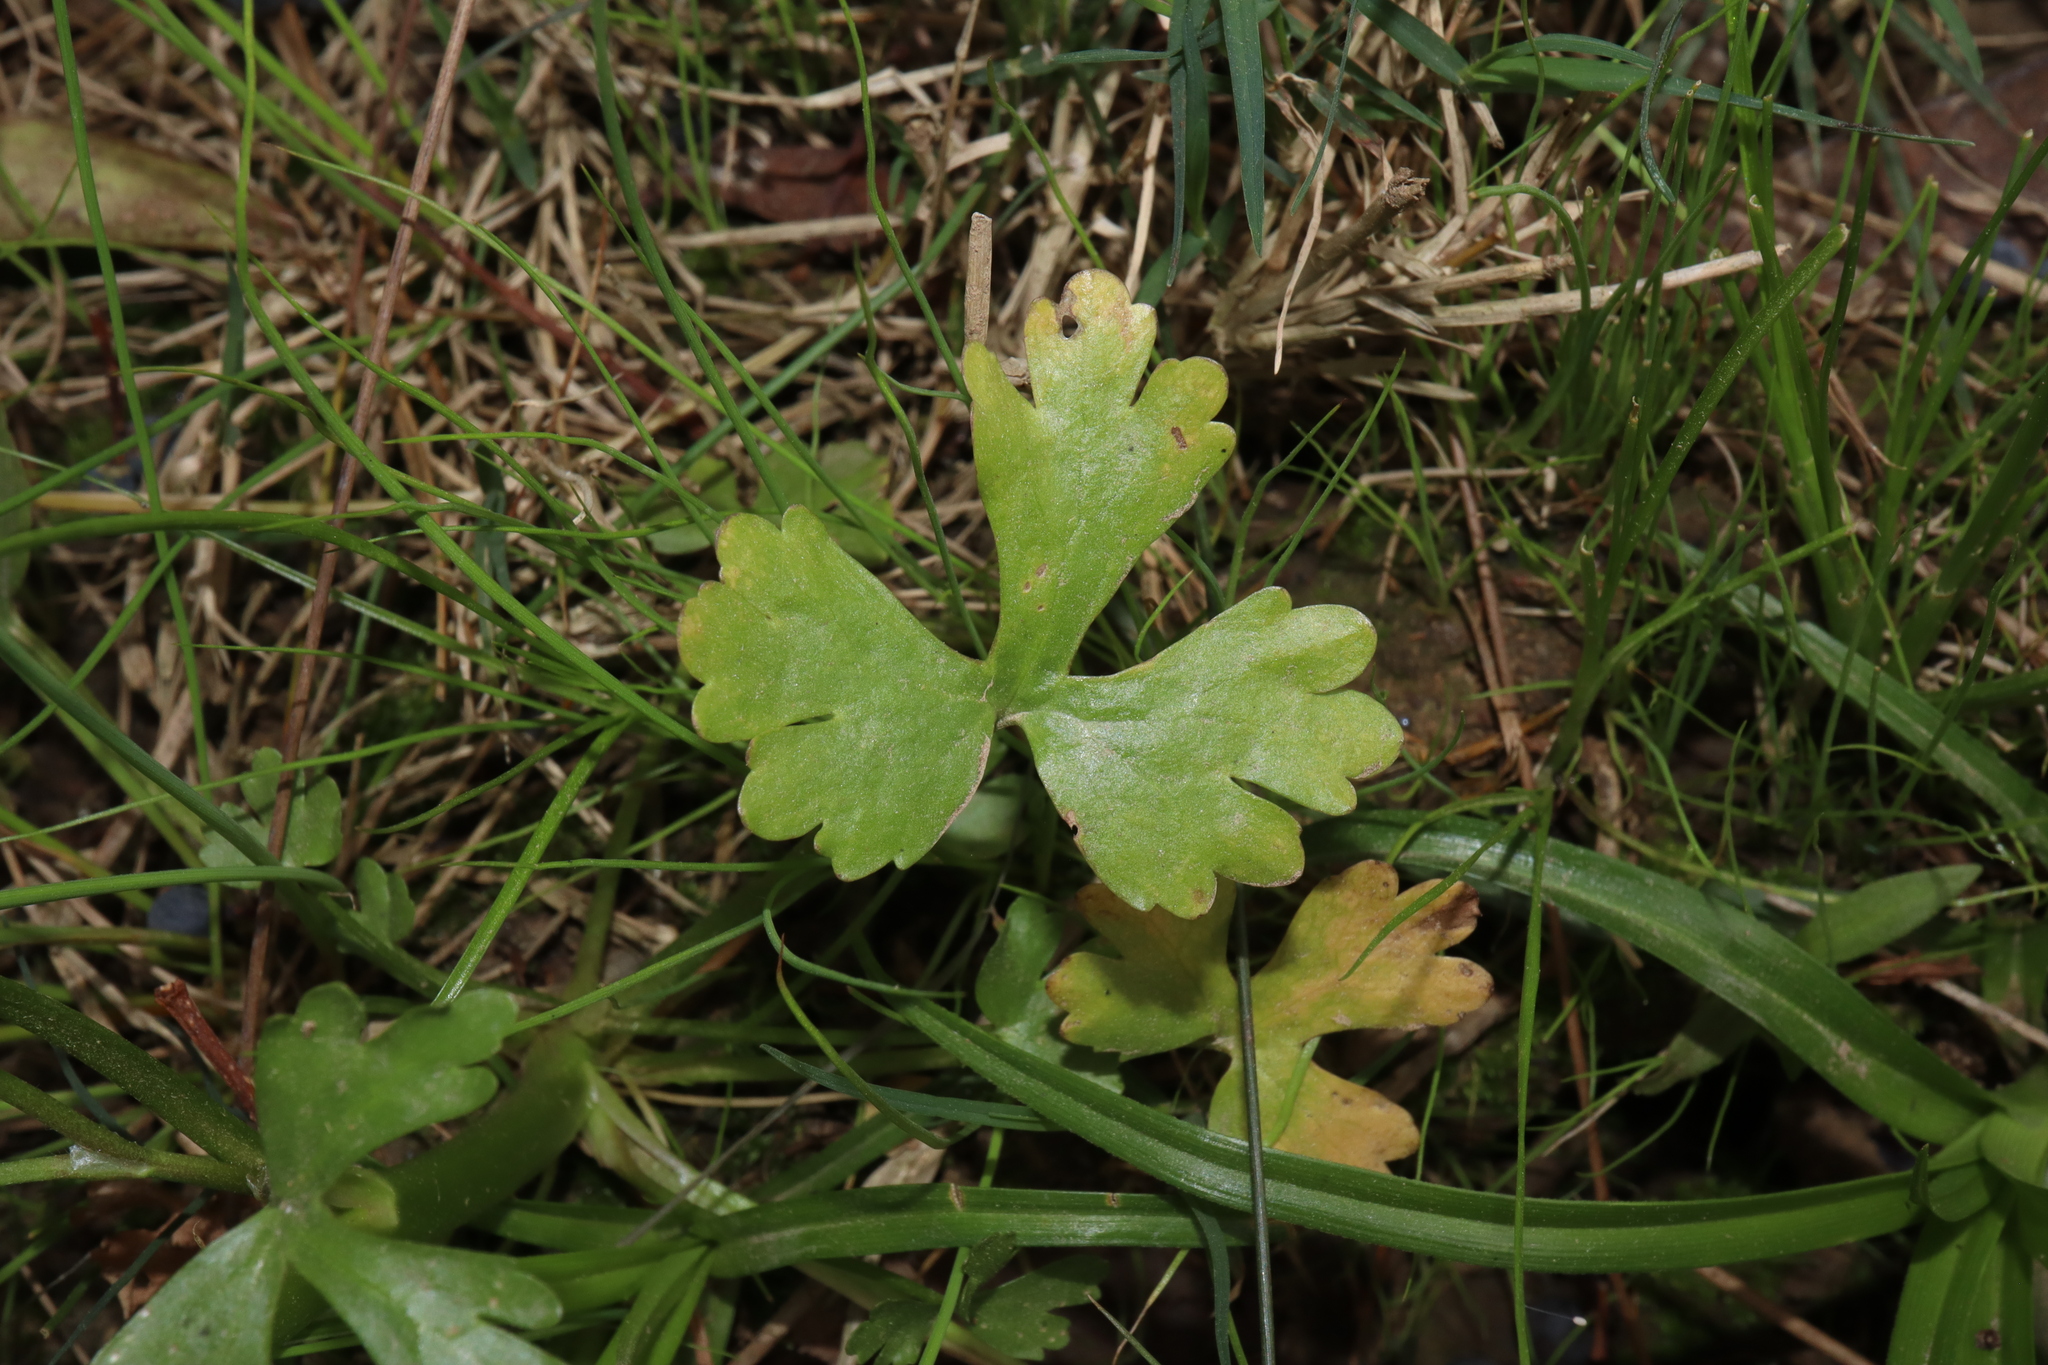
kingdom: Plantae
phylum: Tracheophyta
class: Magnoliopsida
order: Ranunculales
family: Ranunculaceae
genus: Ranunculus
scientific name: Ranunculus sceleratus
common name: Celery-leaved buttercup
